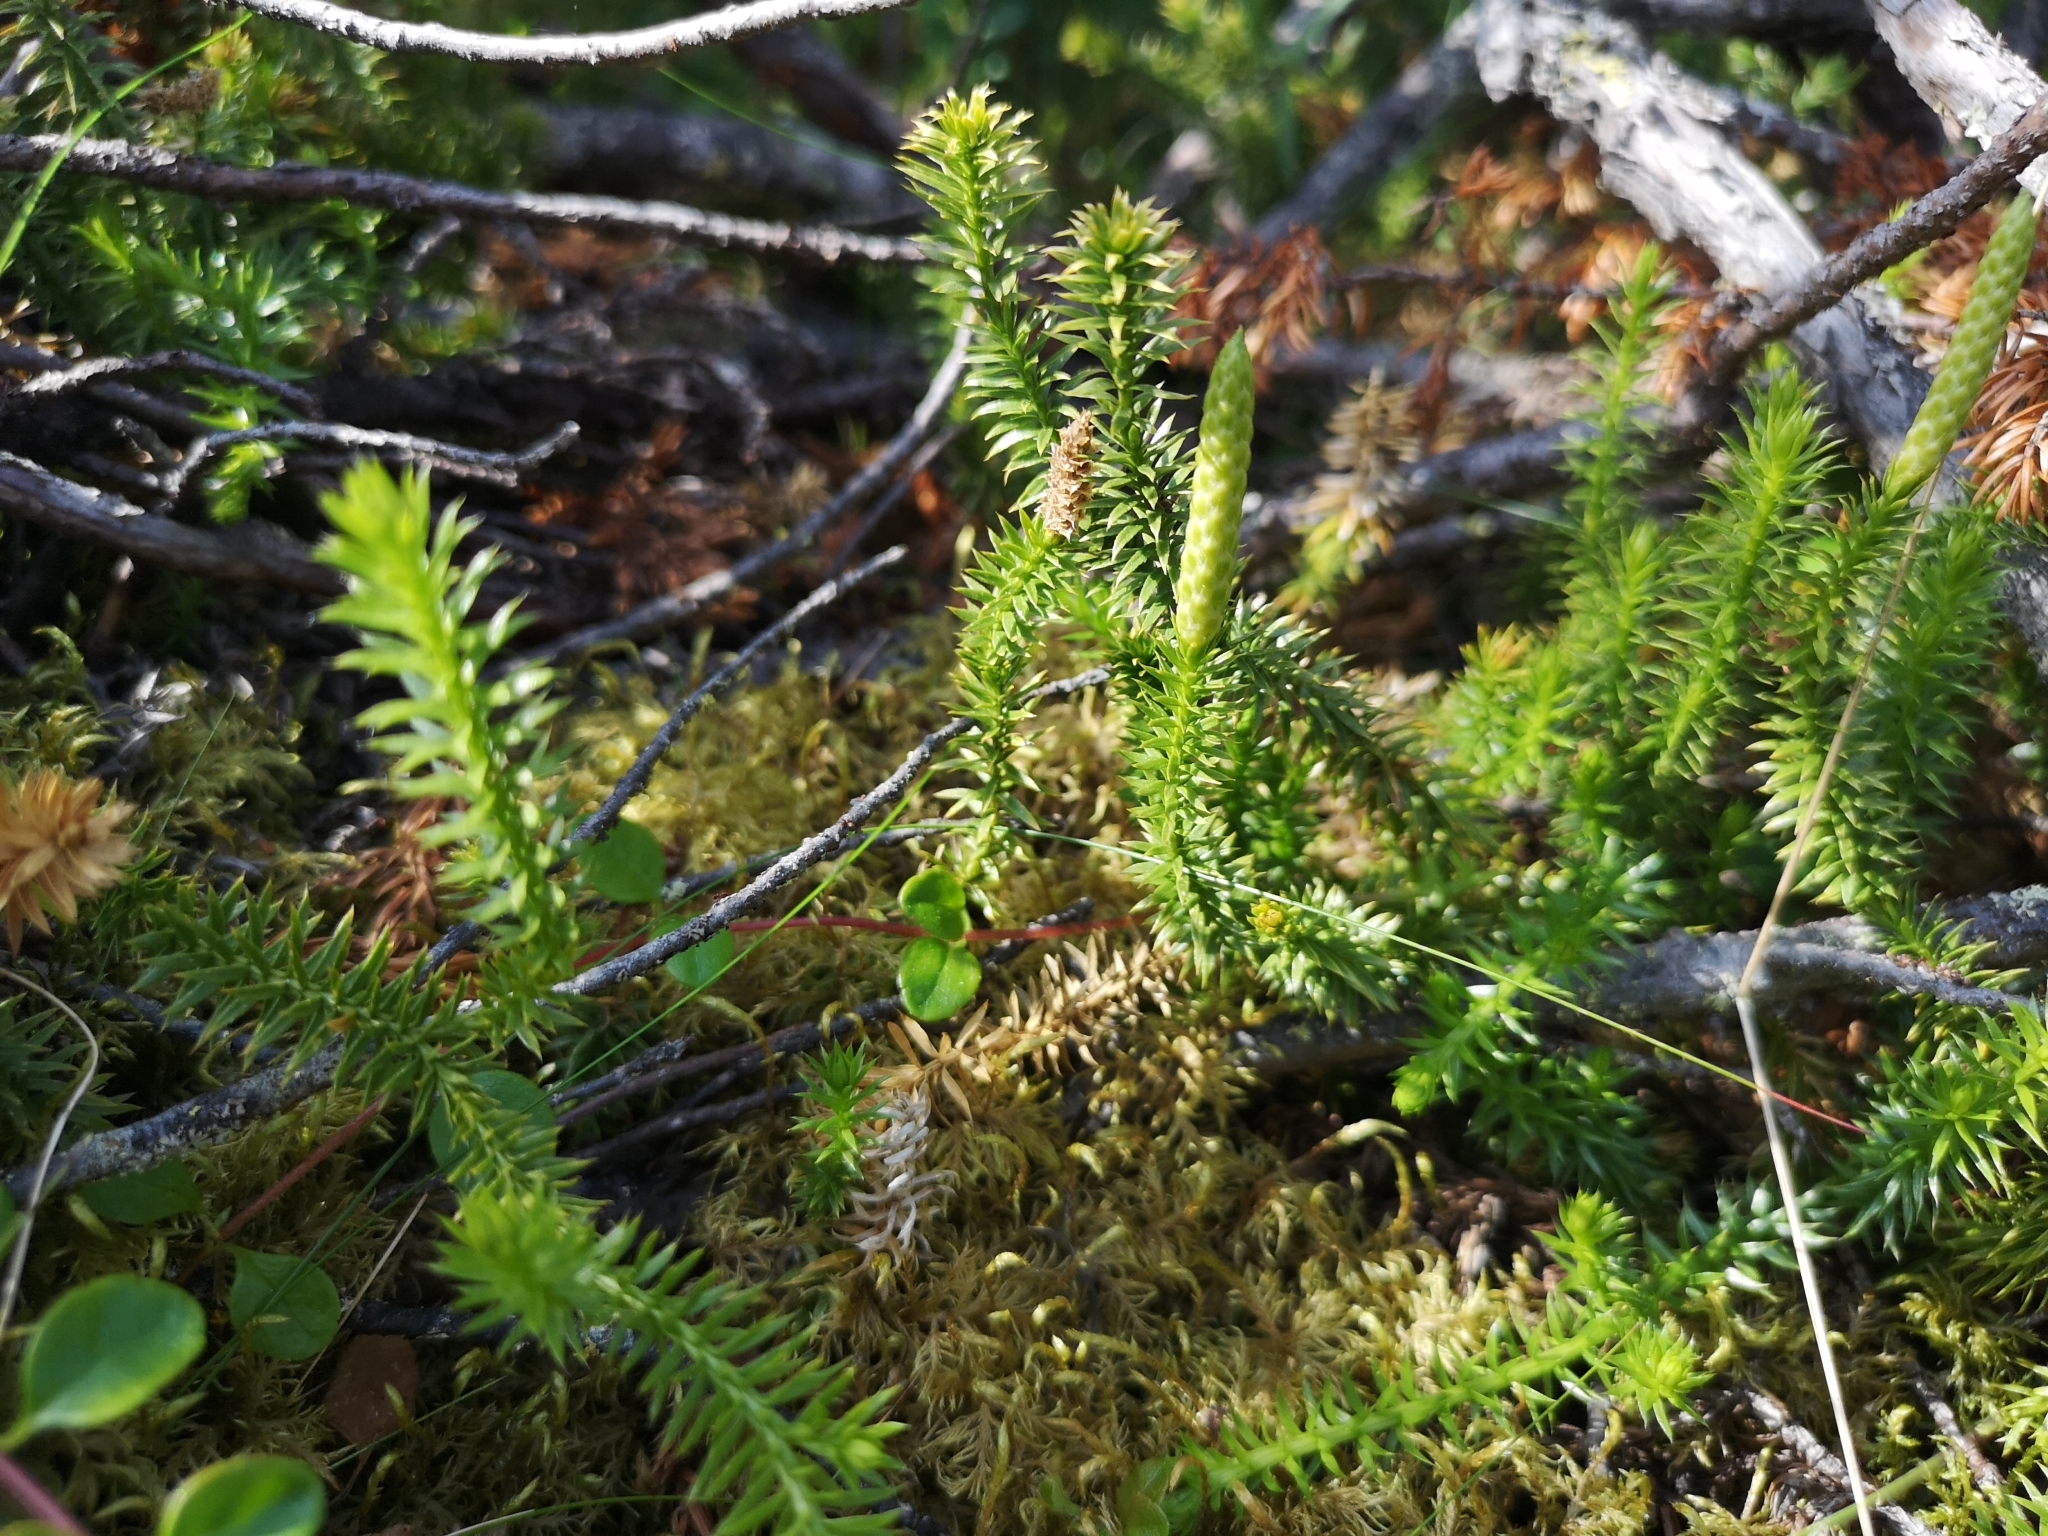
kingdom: Plantae
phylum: Tracheophyta
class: Lycopodiopsida
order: Lycopodiales
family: Lycopodiaceae
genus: Spinulum
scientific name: Spinulum annotinum
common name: Interrupted club-moss
